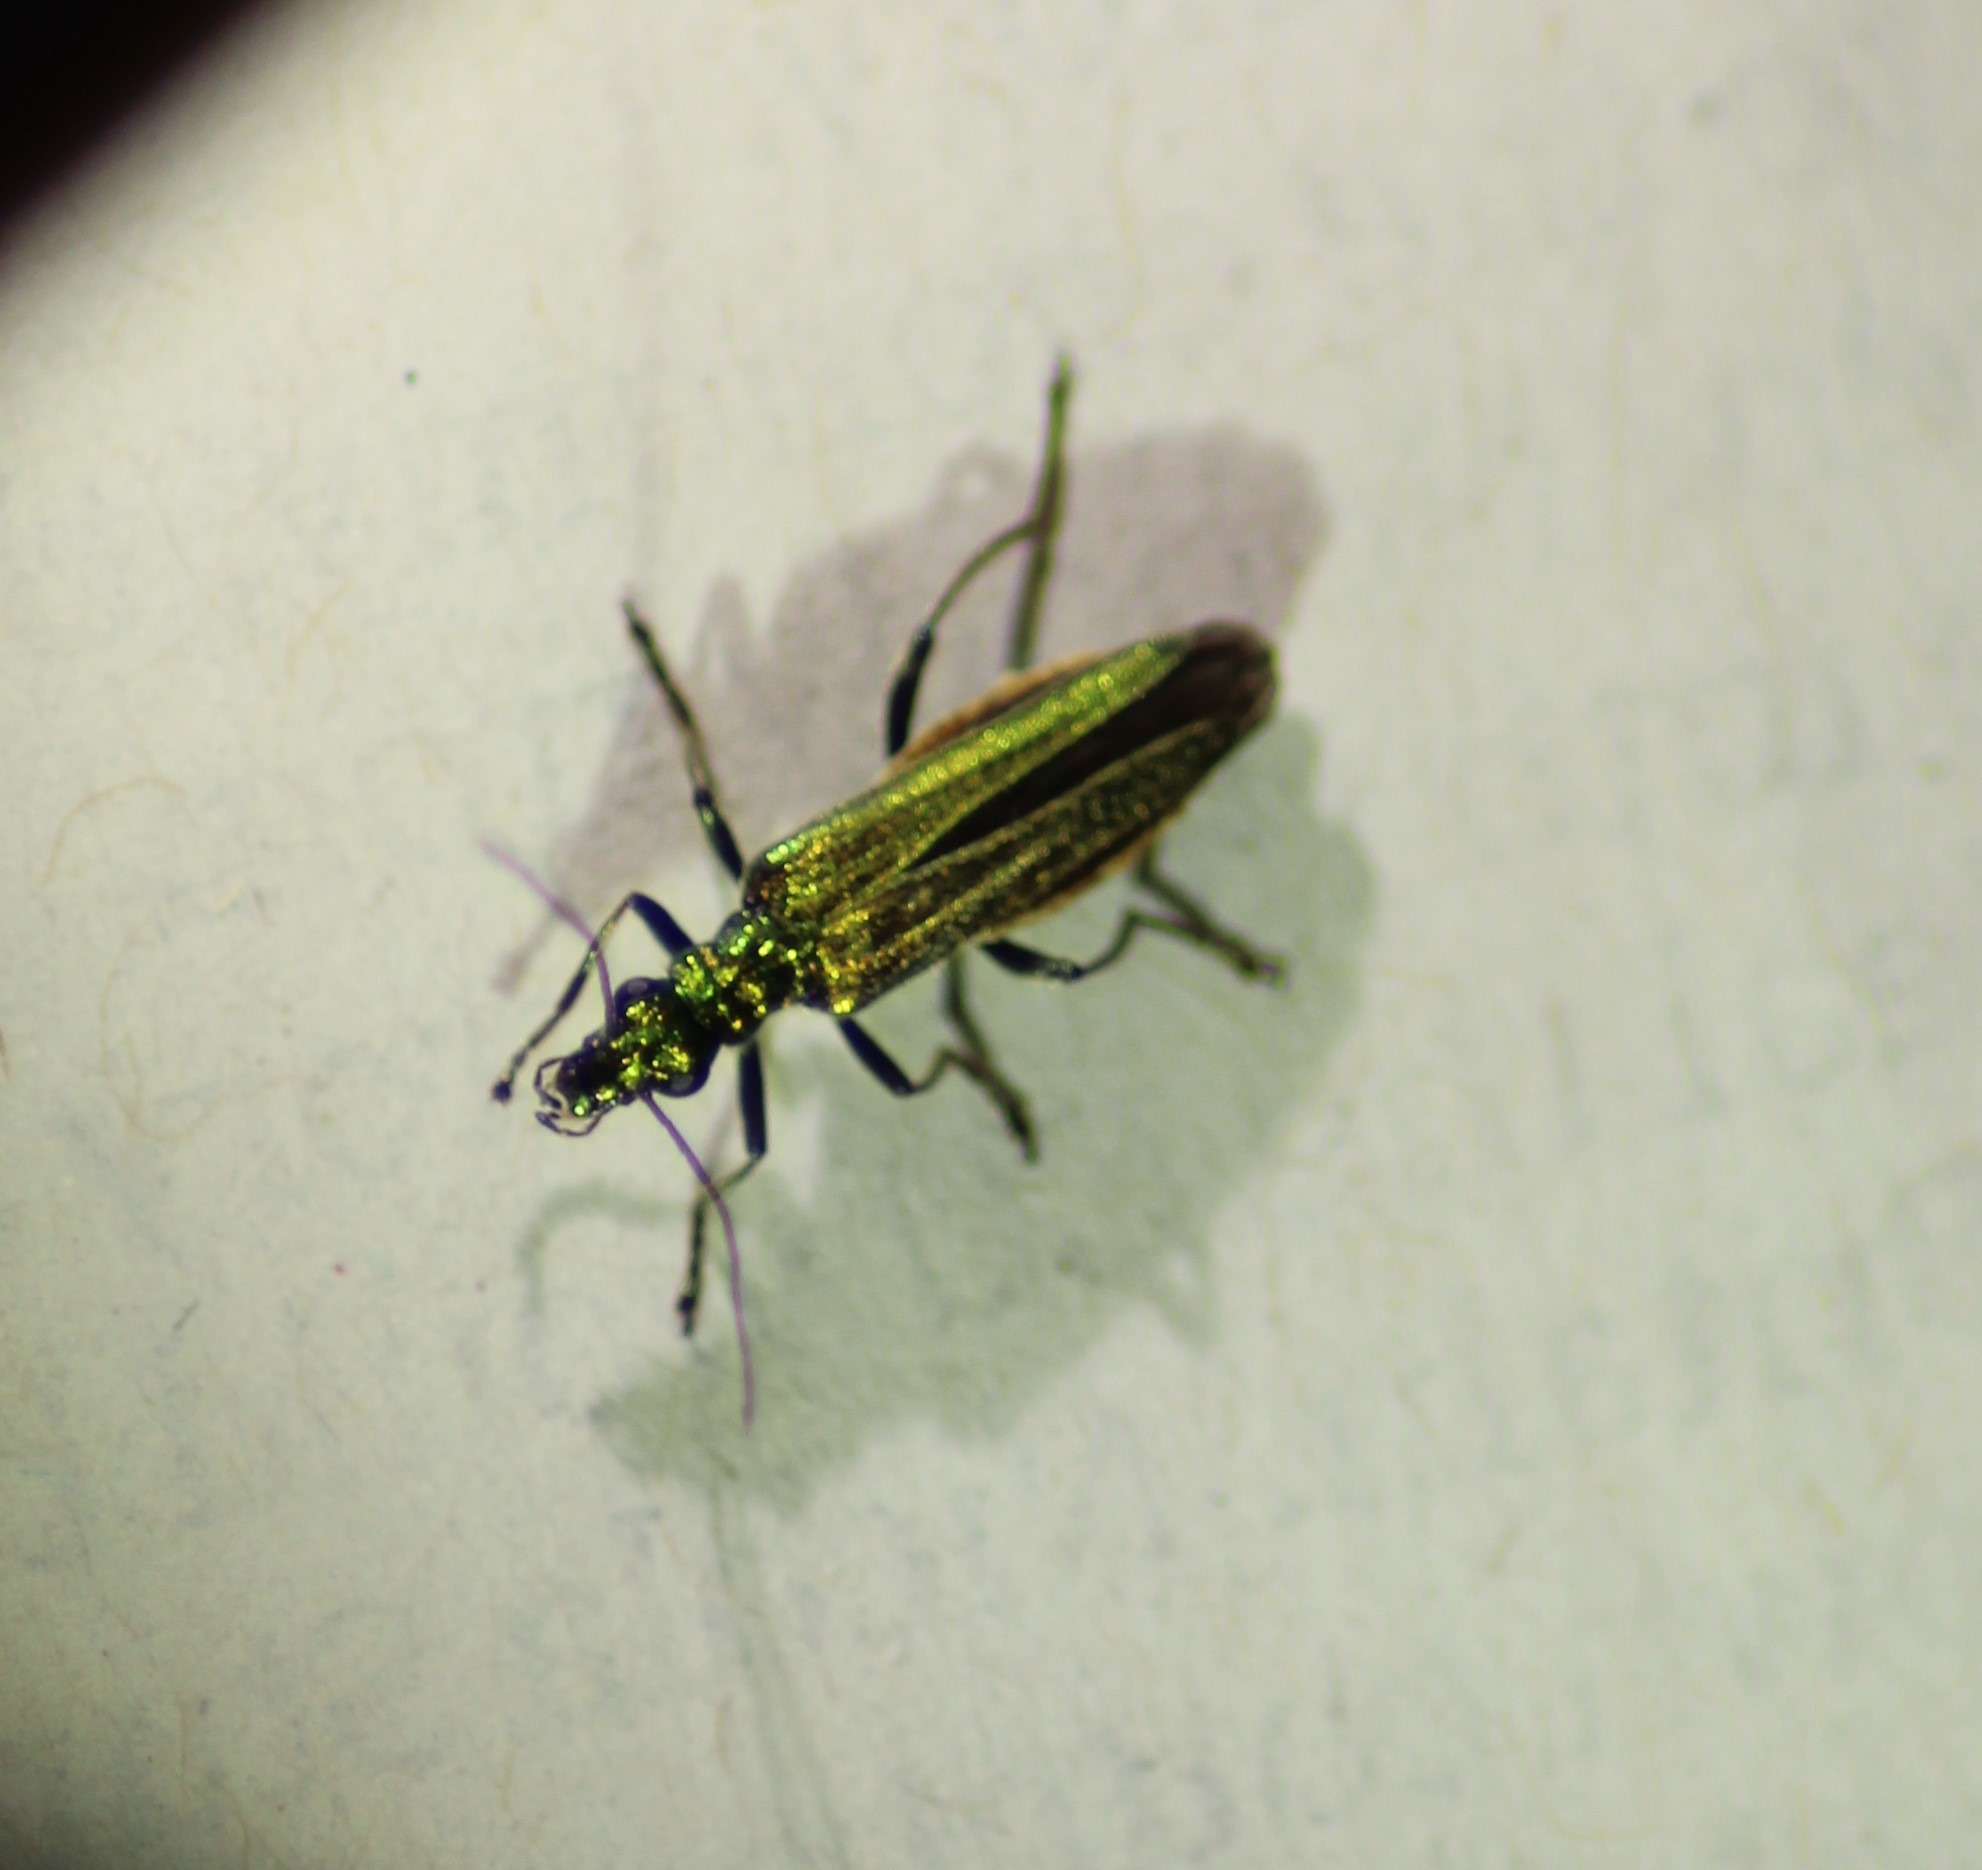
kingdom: Animalia
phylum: Arthropoda
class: Insecta
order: Coleoptera
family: Oedemeridae
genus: Oedemera
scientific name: Oedemera nobilis
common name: Swollen-thighed beetle
